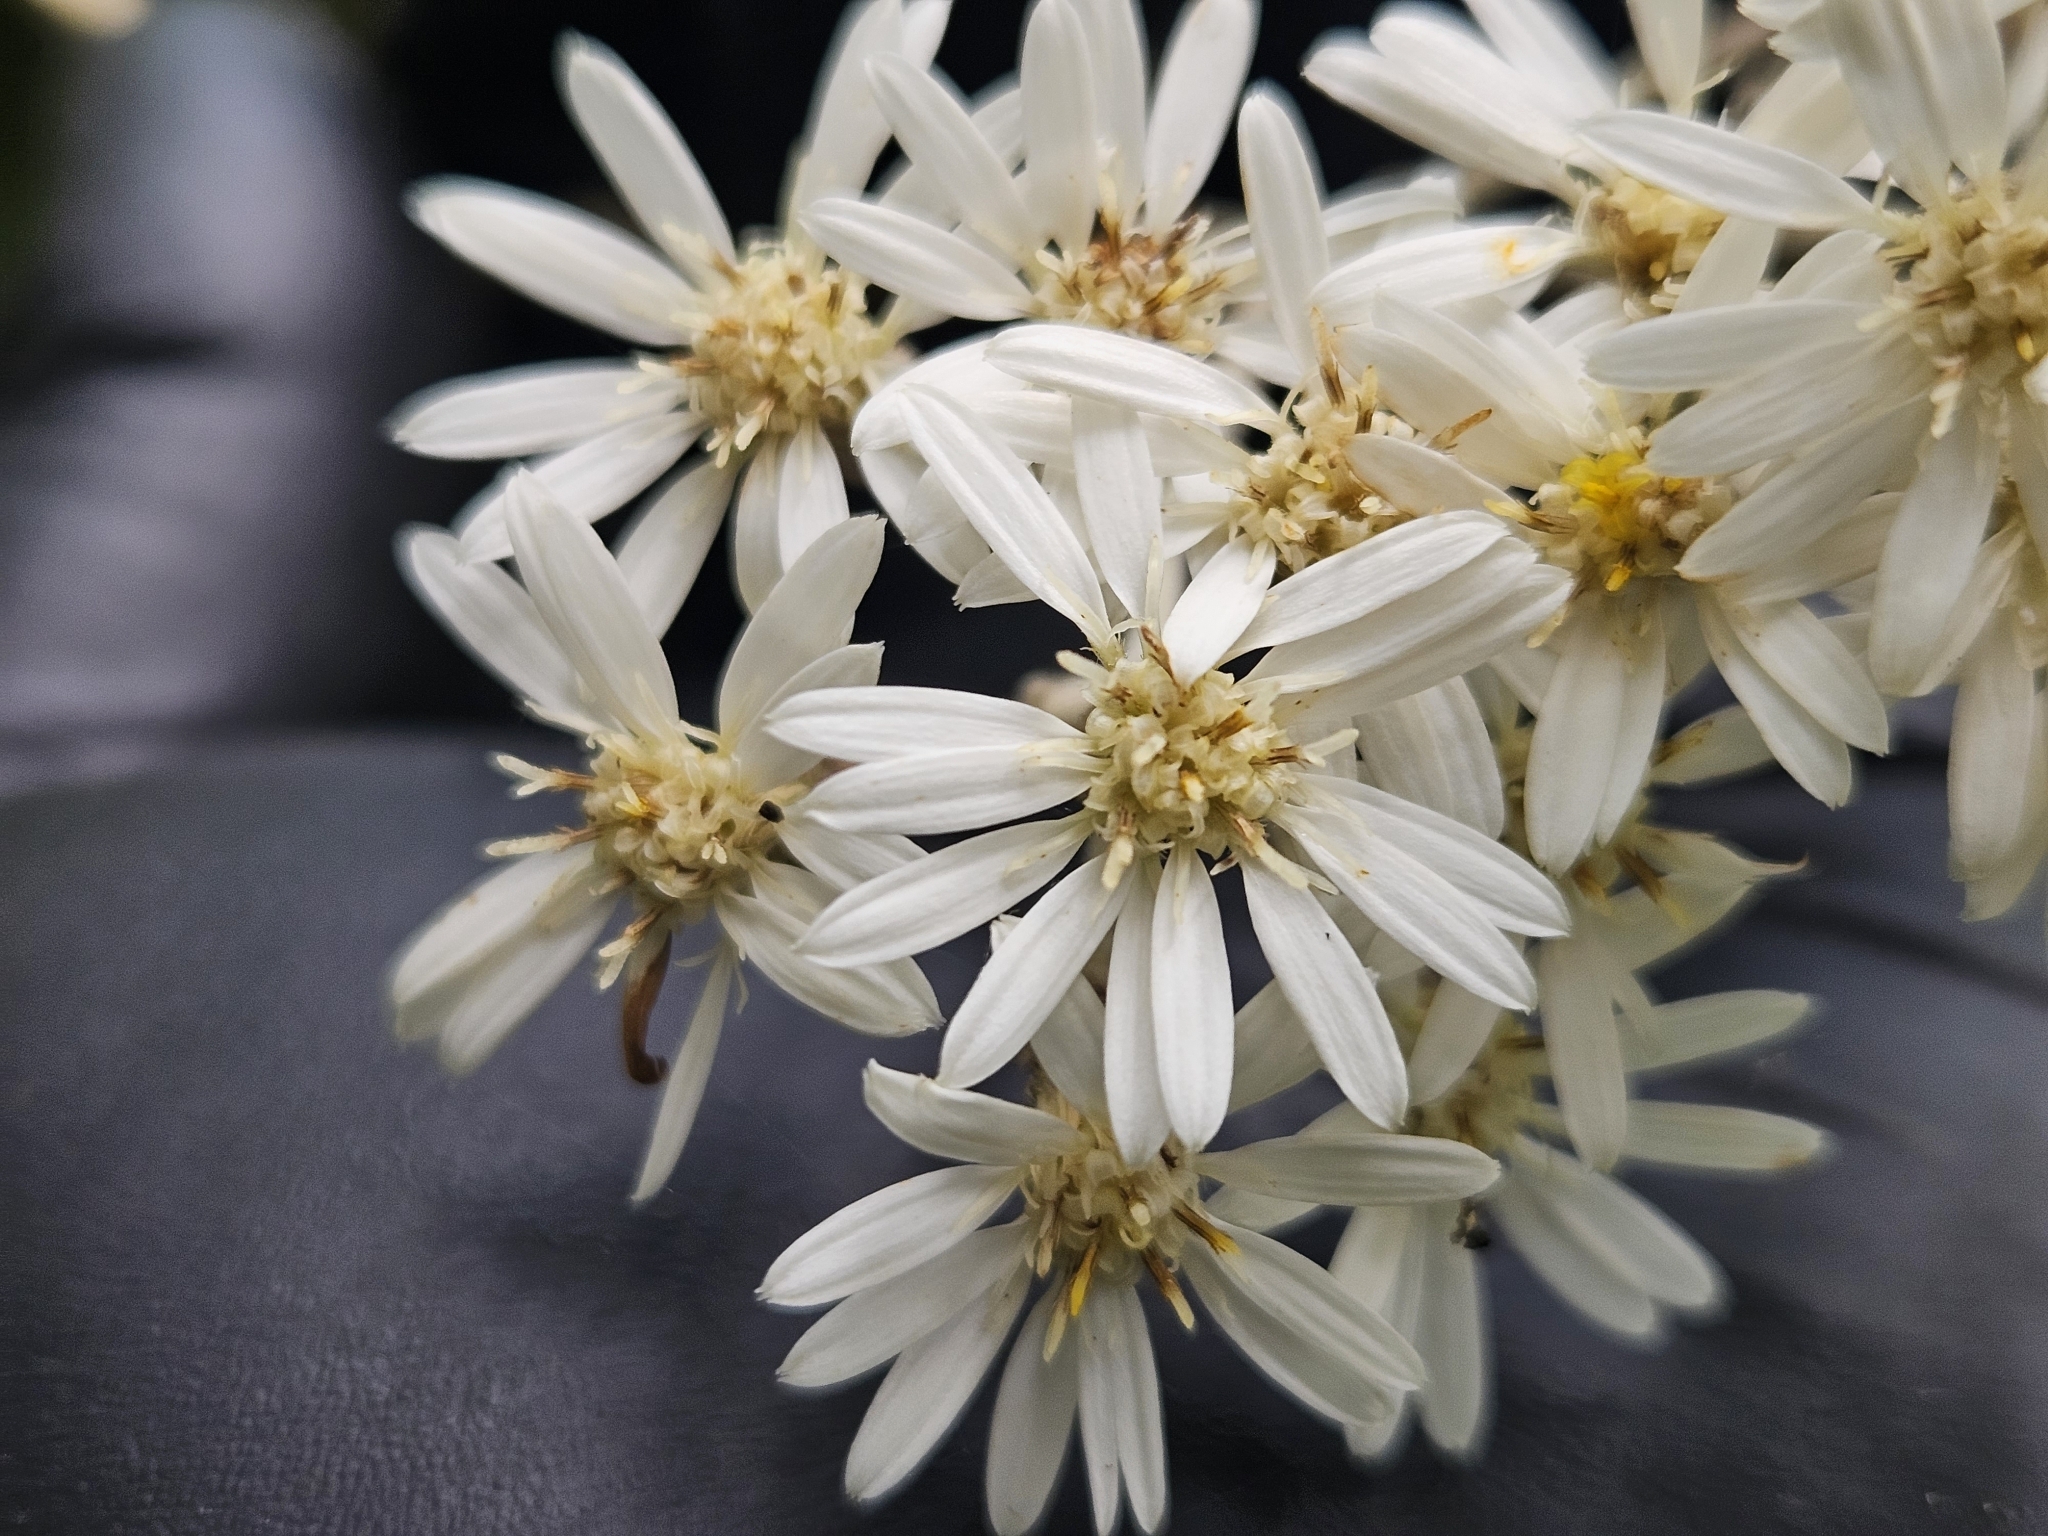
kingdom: Plantae
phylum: Tracheophyta
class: Magnoliopsida
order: Asterales
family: Asteraceae
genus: Olearia
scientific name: Olearia rani
